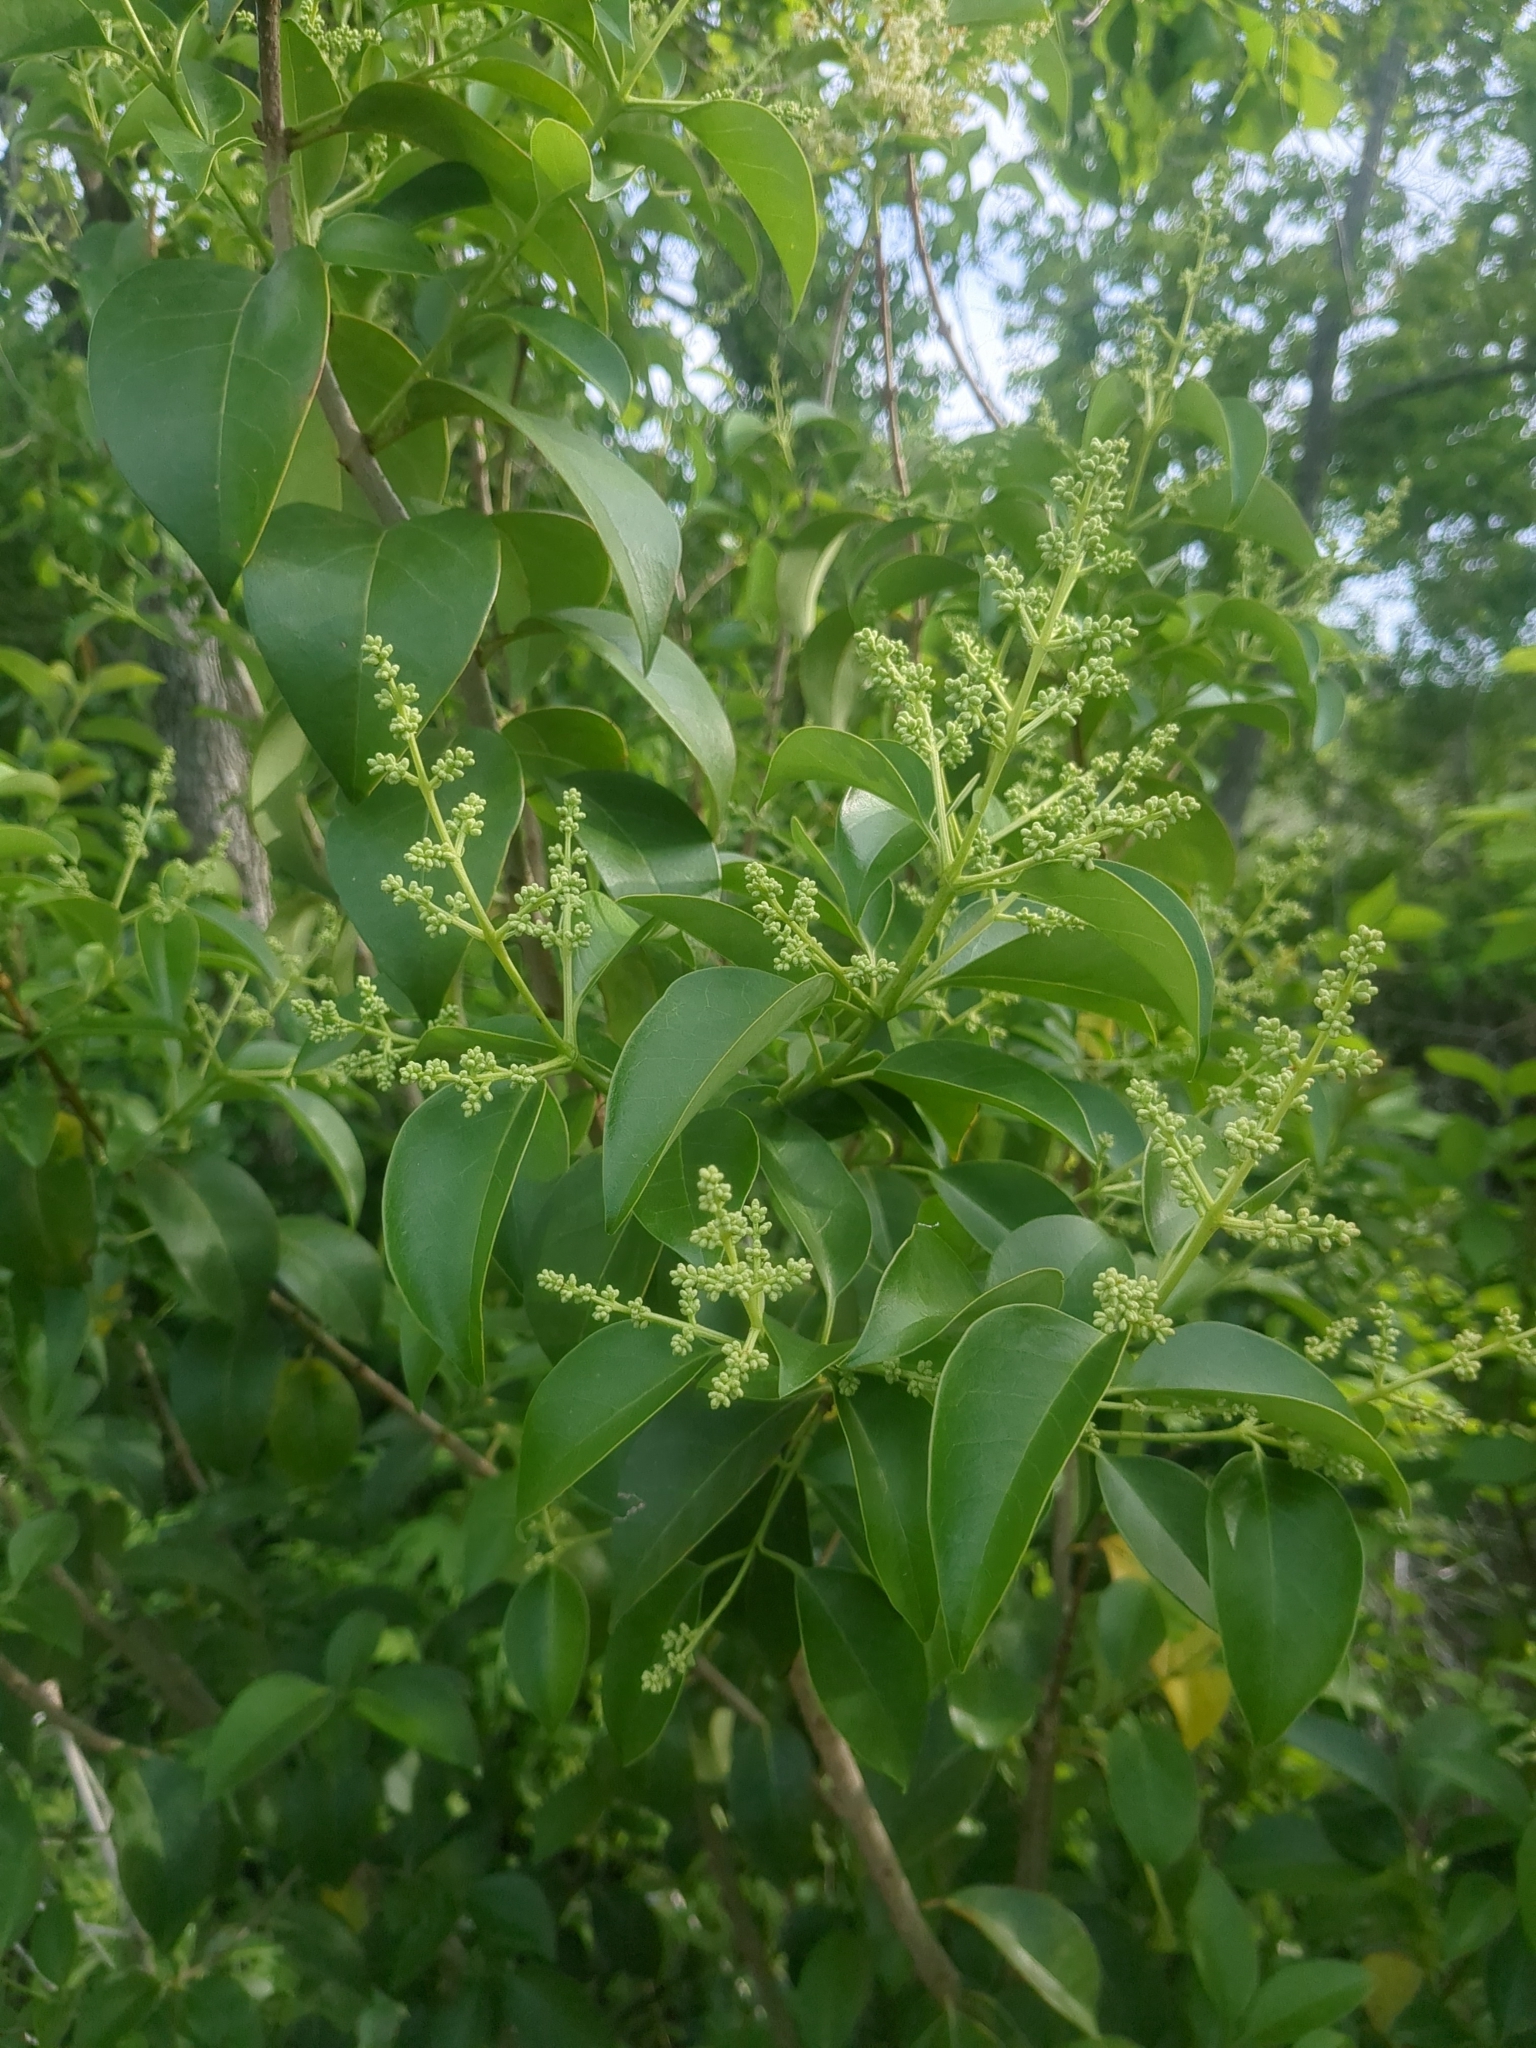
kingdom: Plantae
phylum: Tracheophyta
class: Magnoliopsida
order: Lamiales
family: Oleaceae
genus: Ligustrum
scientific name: Ligustrum lucidum
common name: Glossy privet
